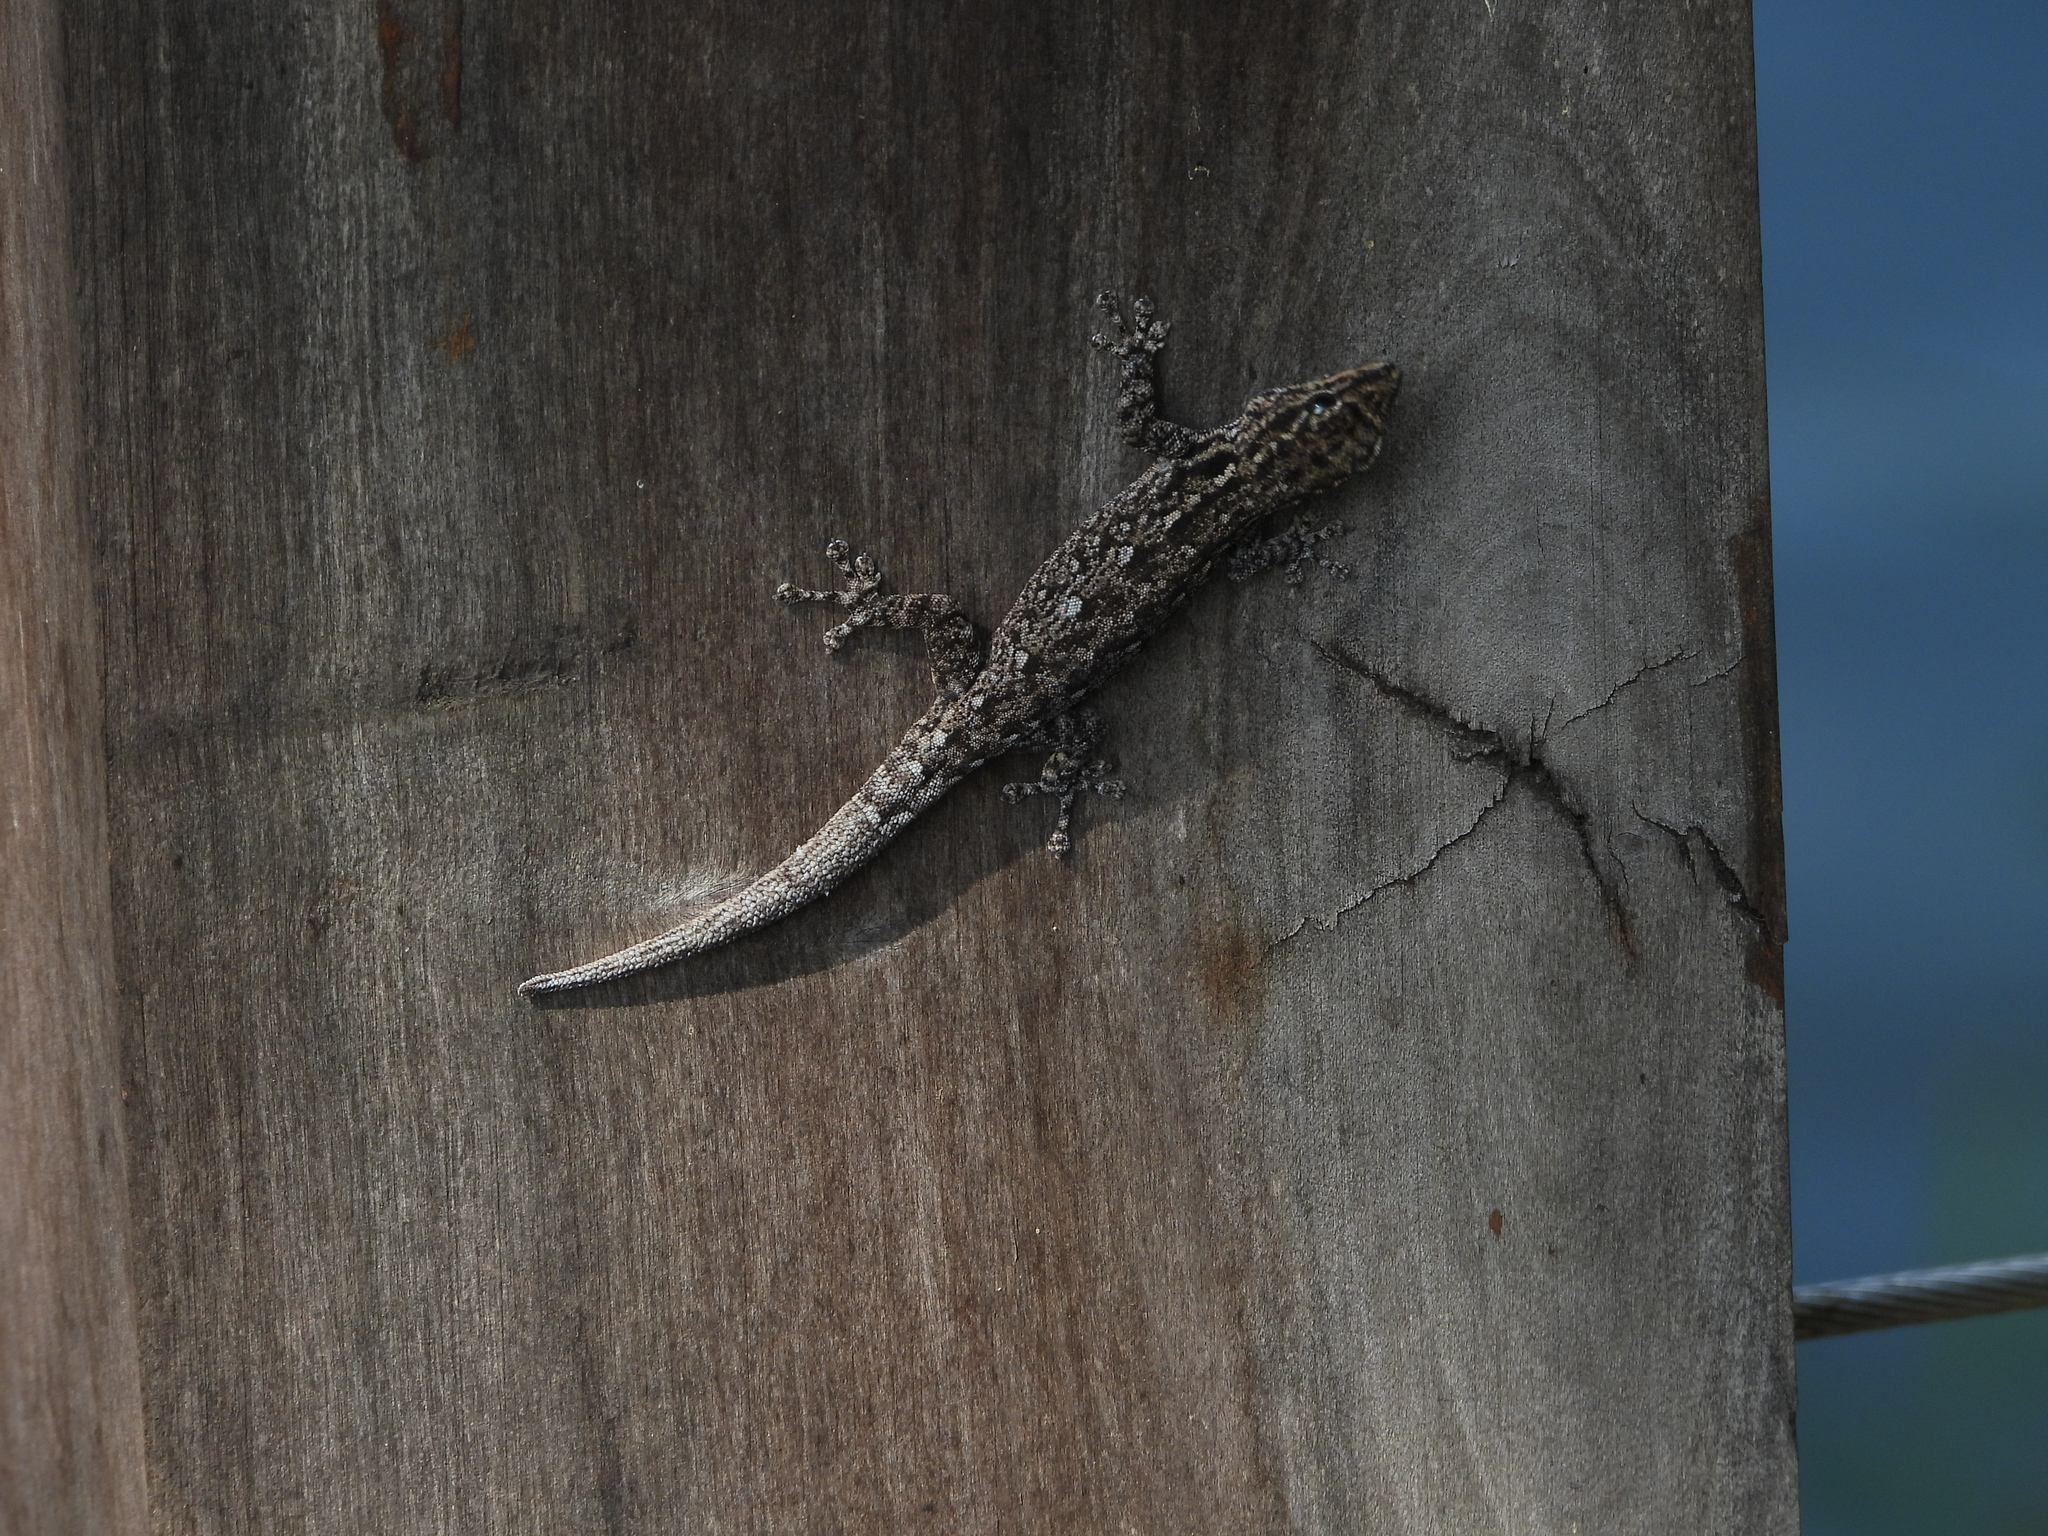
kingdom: Animalia
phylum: Chordata
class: Squamata
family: Gekkonidae
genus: Lygodactylus
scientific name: Lygodactylus chobiensis
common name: Okavango dwarf gecko
